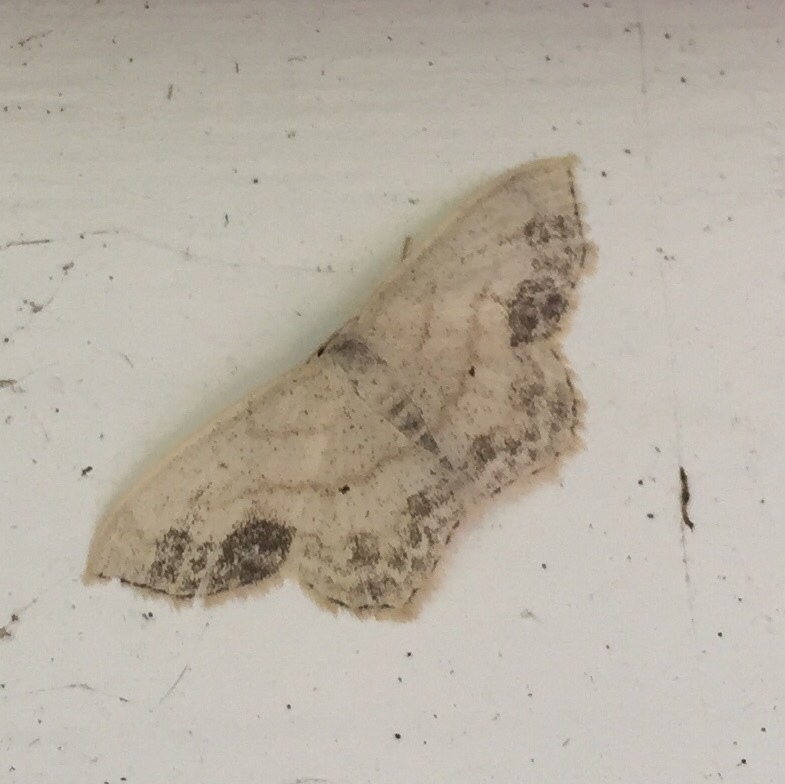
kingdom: Animalia
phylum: Arthropoda
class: Insecta
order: Lepidoptera
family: Geometridae
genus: Scopula
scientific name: Scopula limboundata
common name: Large lace border
